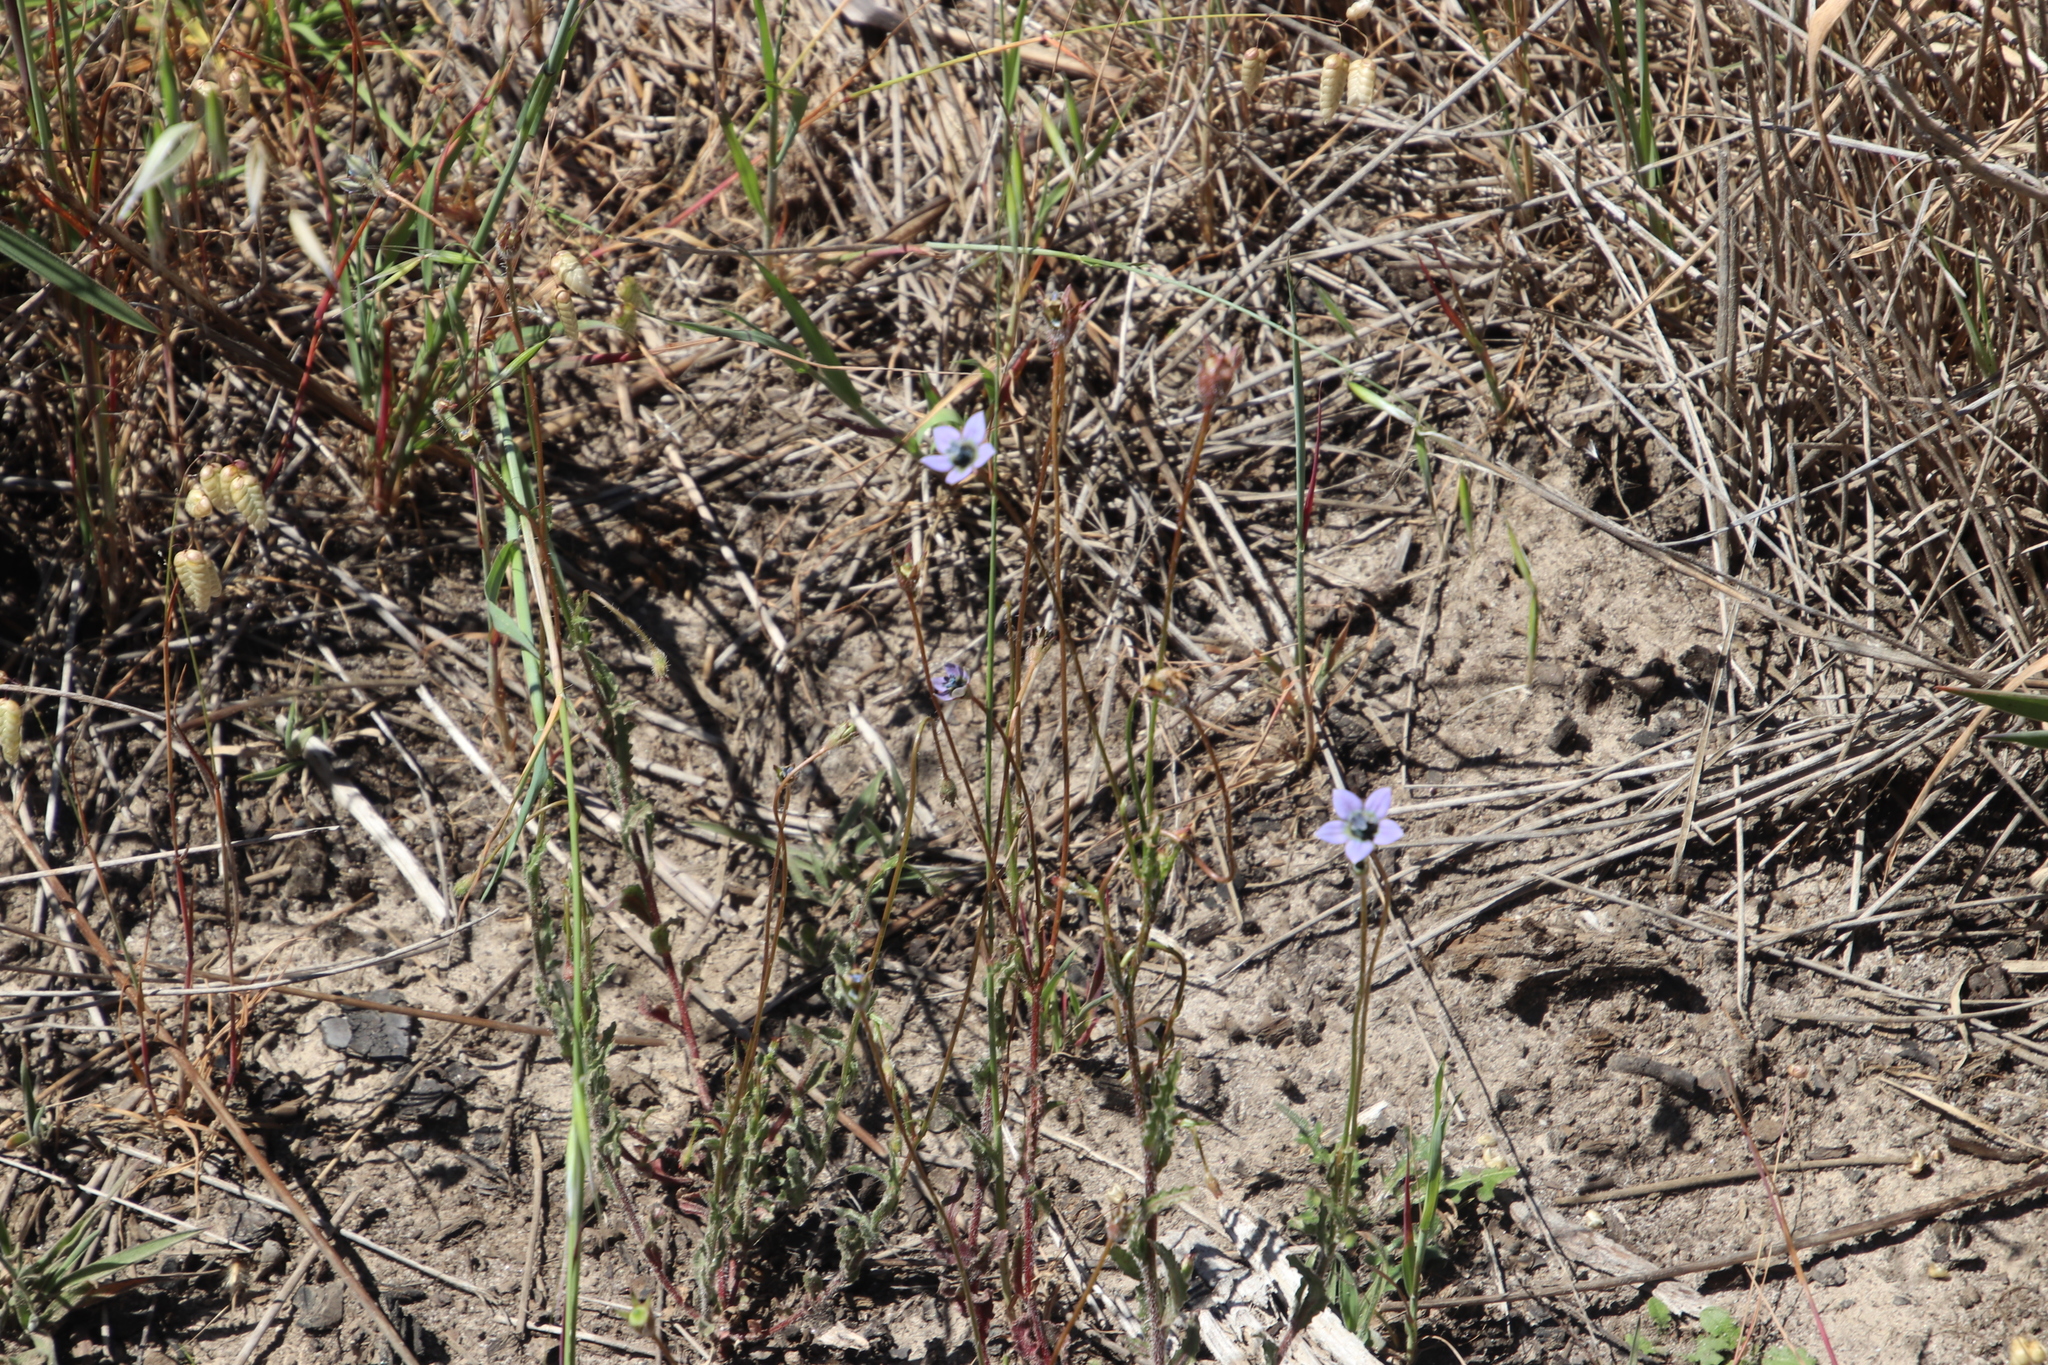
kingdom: Plantae
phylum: Tracheophyta
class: Magnoliopsida
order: Asterales
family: Campanulaceae
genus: Wahlenbergia
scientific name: Wahlenbergia capensis
